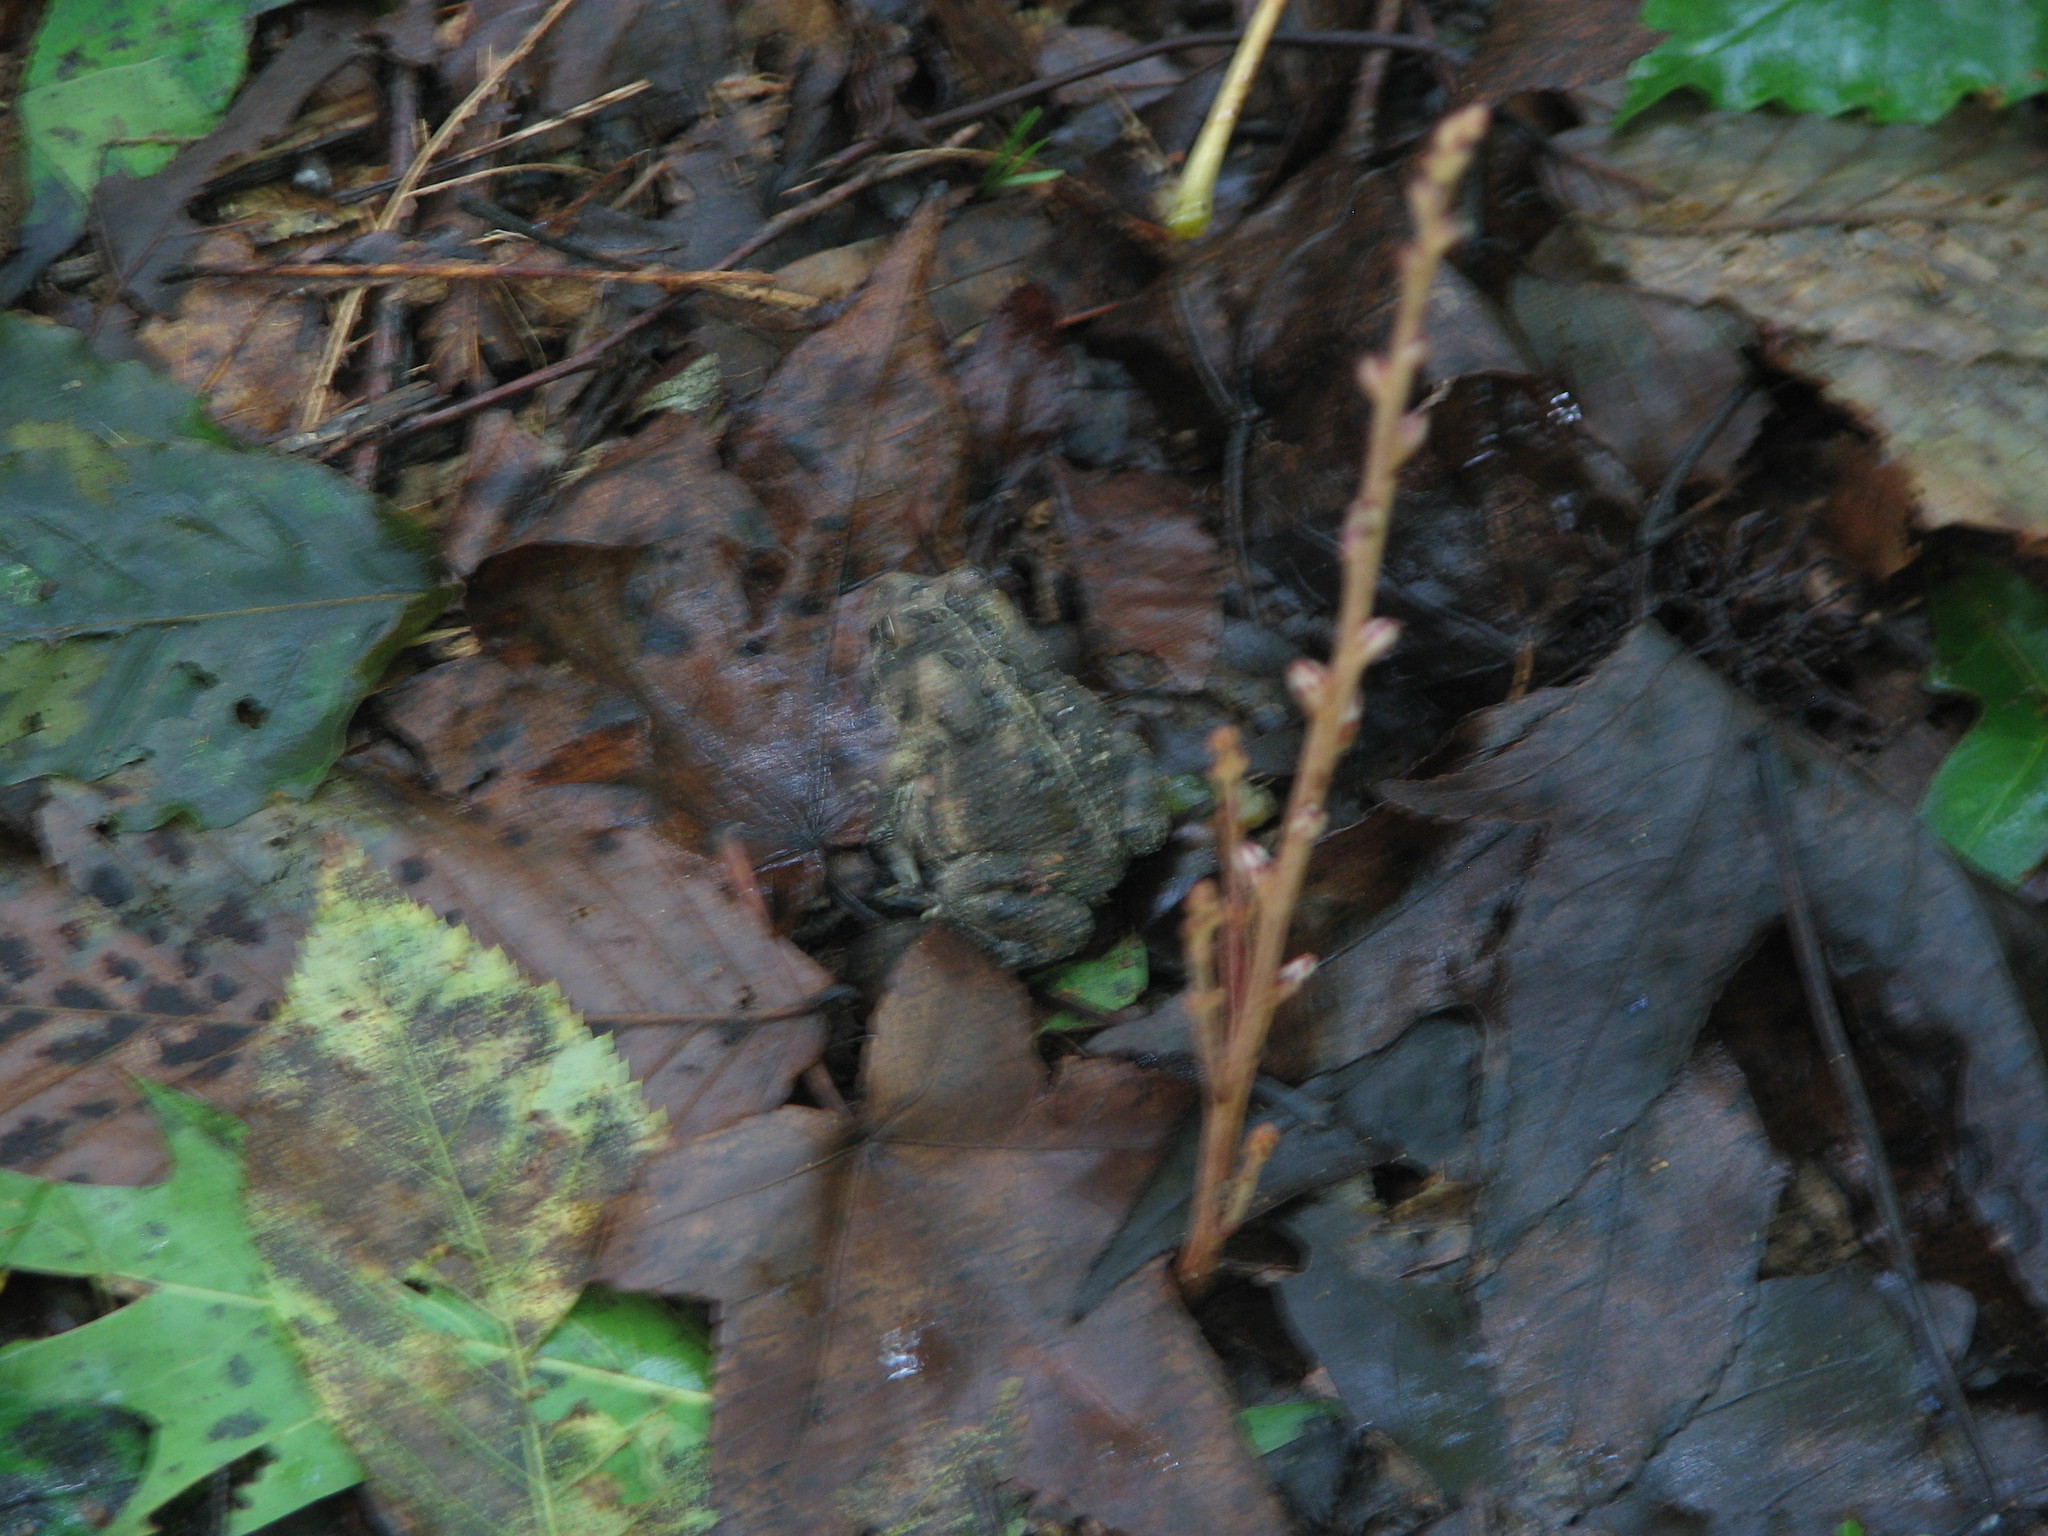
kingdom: Animalia
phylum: Chordata
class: Amphibia
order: Anura
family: Bufonidae
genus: Anaxyrus
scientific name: Anaxyrus fowleri
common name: Fowler's toad
